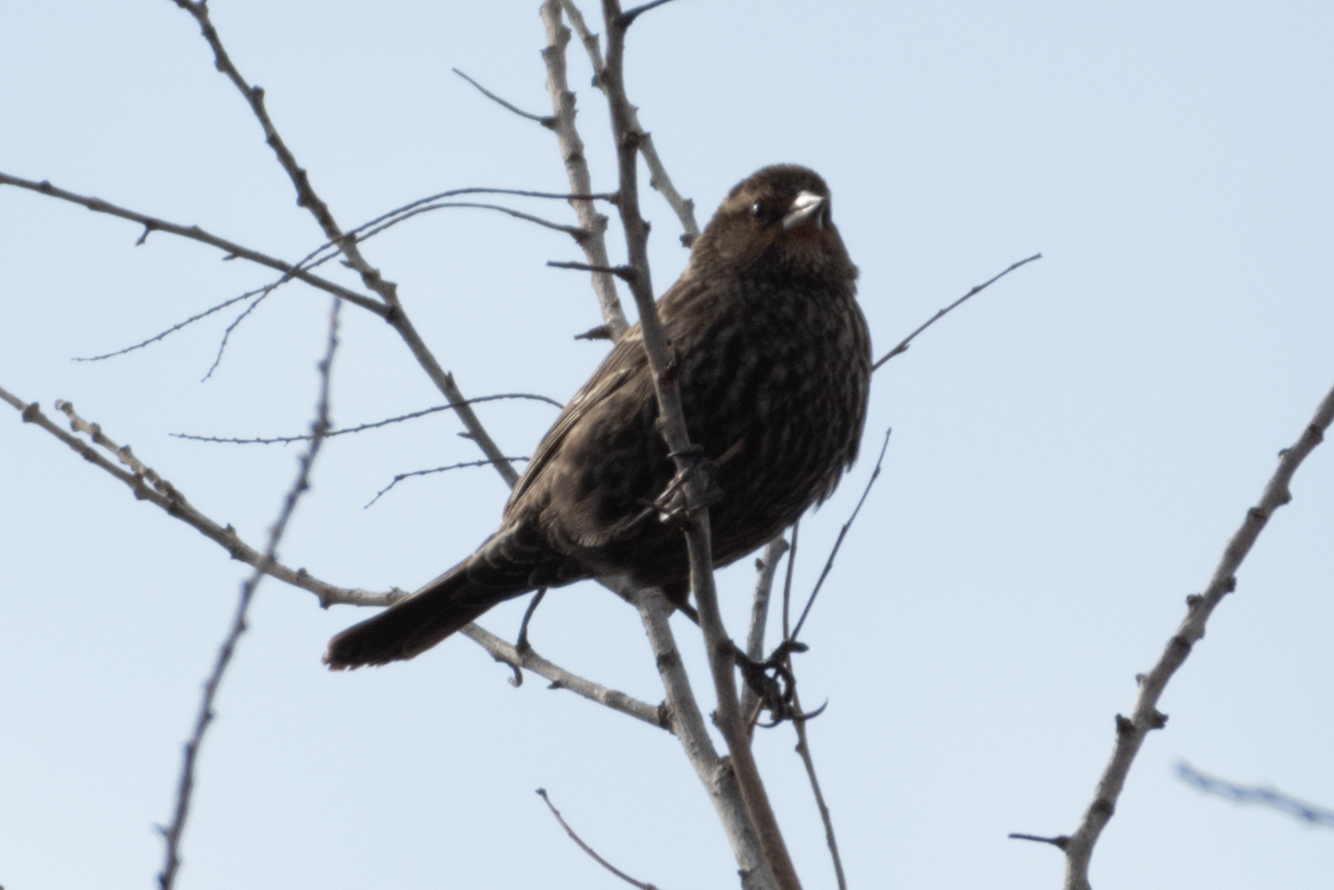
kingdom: Animalia
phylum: Chordata
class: Aves
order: Passeriformes
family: Icteridae
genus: Agelaius
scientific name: Agelaius phoeniceus
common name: Red-winged blackbird
